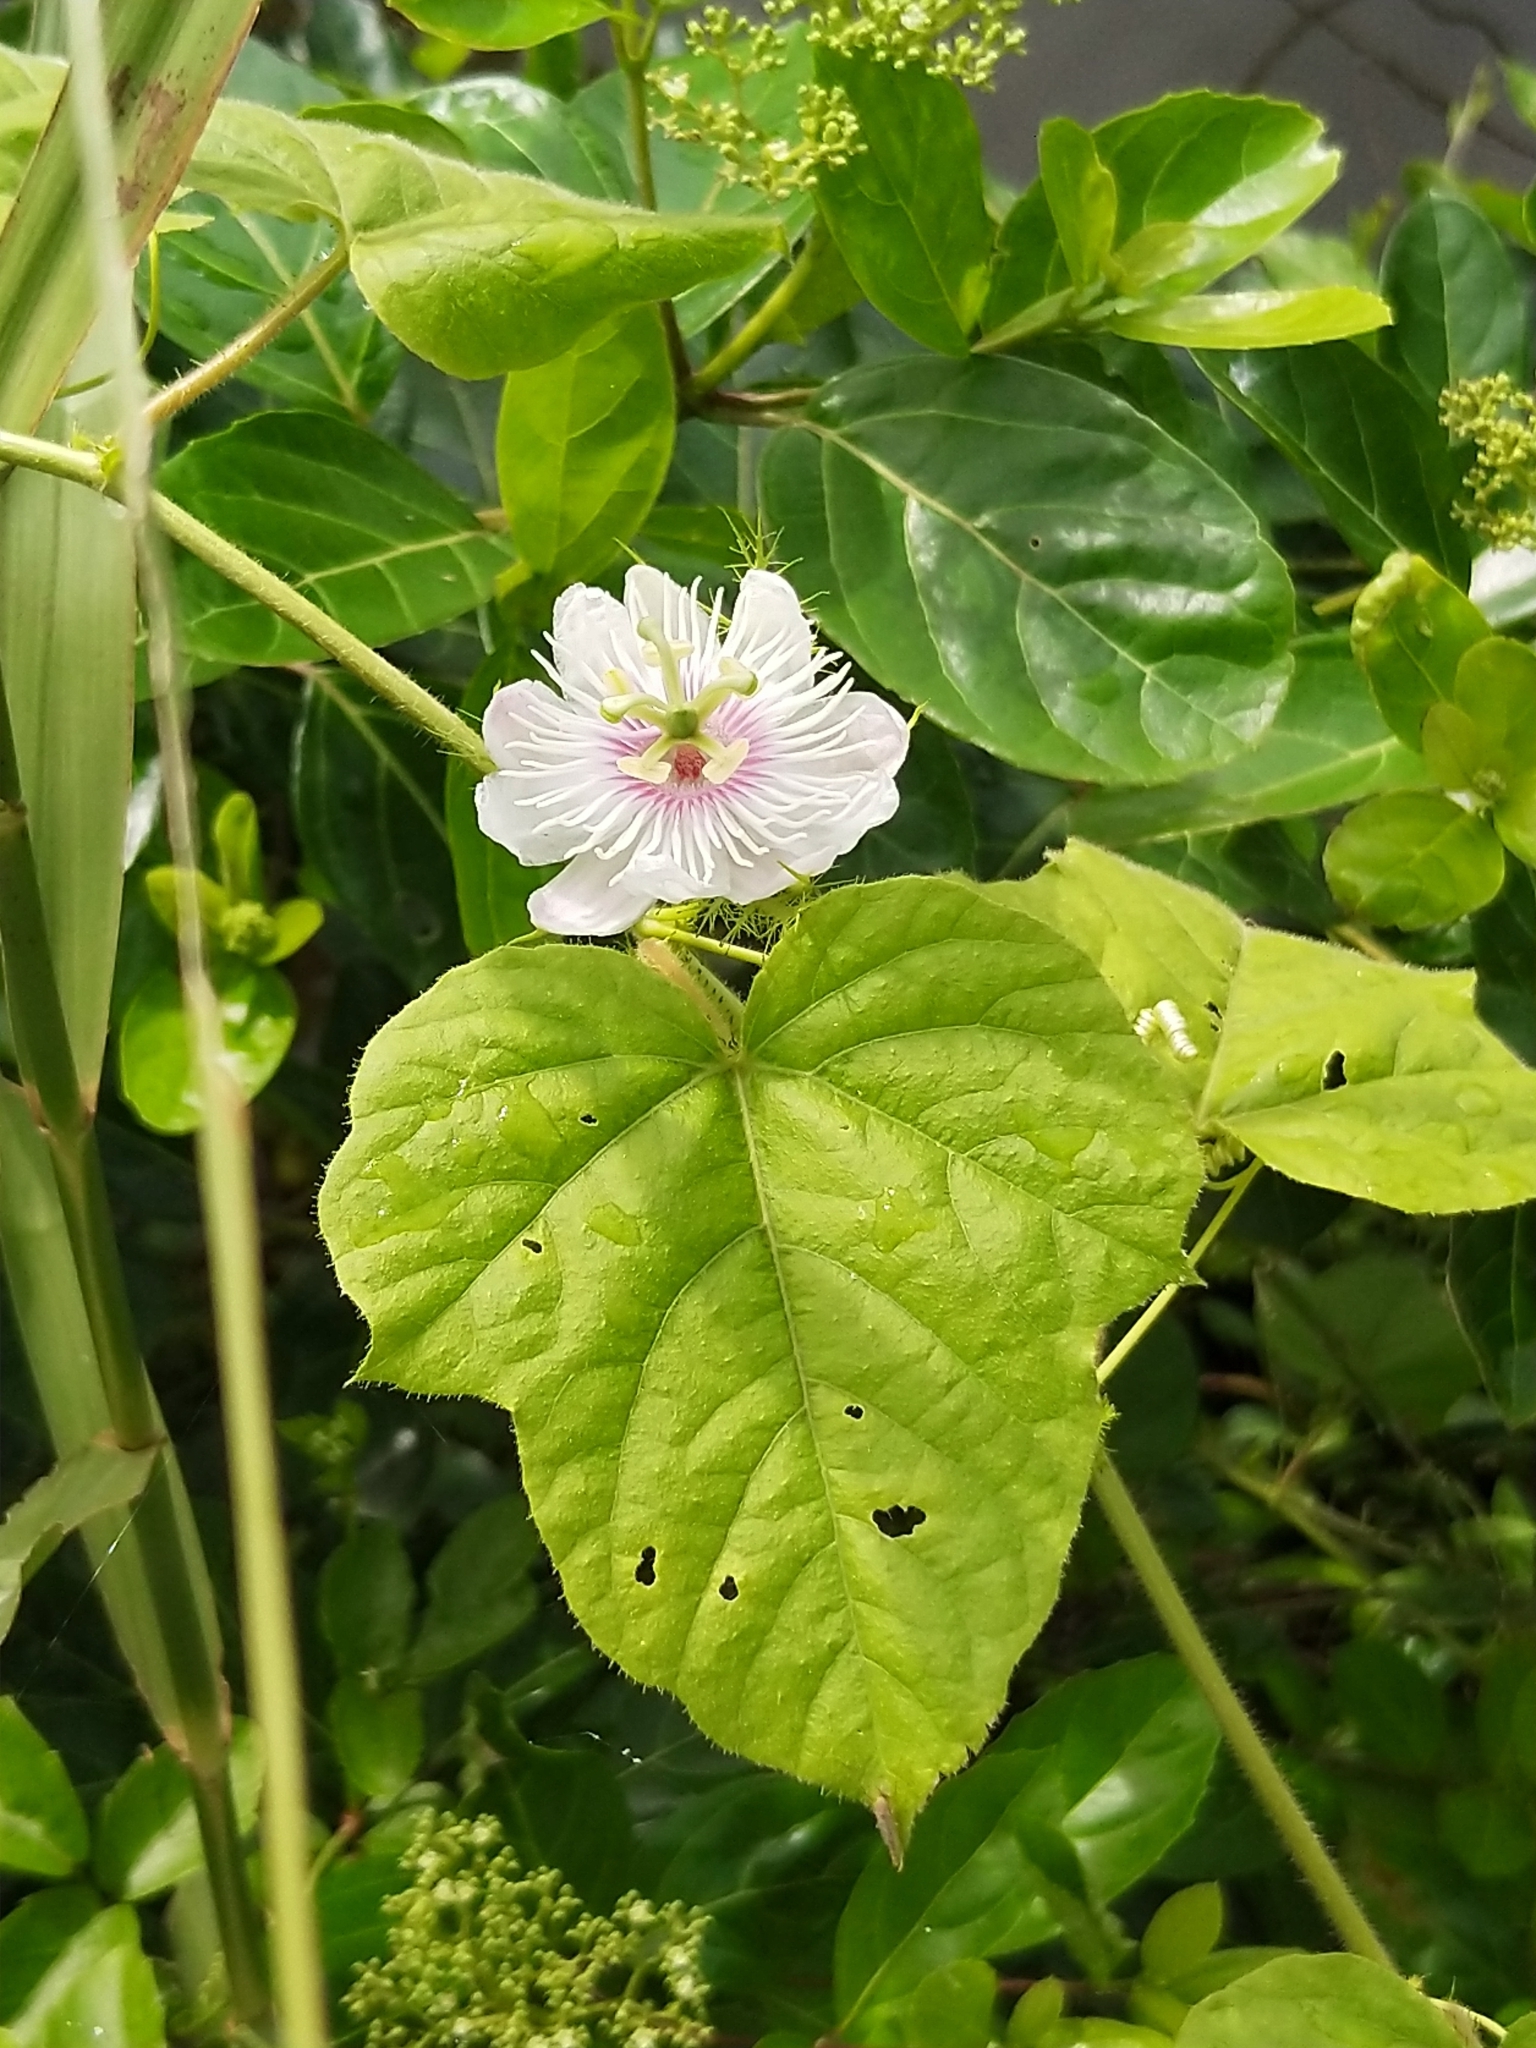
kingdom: Plantae
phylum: Tracheophyta
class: Magnoliopsida
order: Malpighiales
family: Passifloraceae
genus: Passiflora
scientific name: Passiflora foetida
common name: Fetid passionflower
